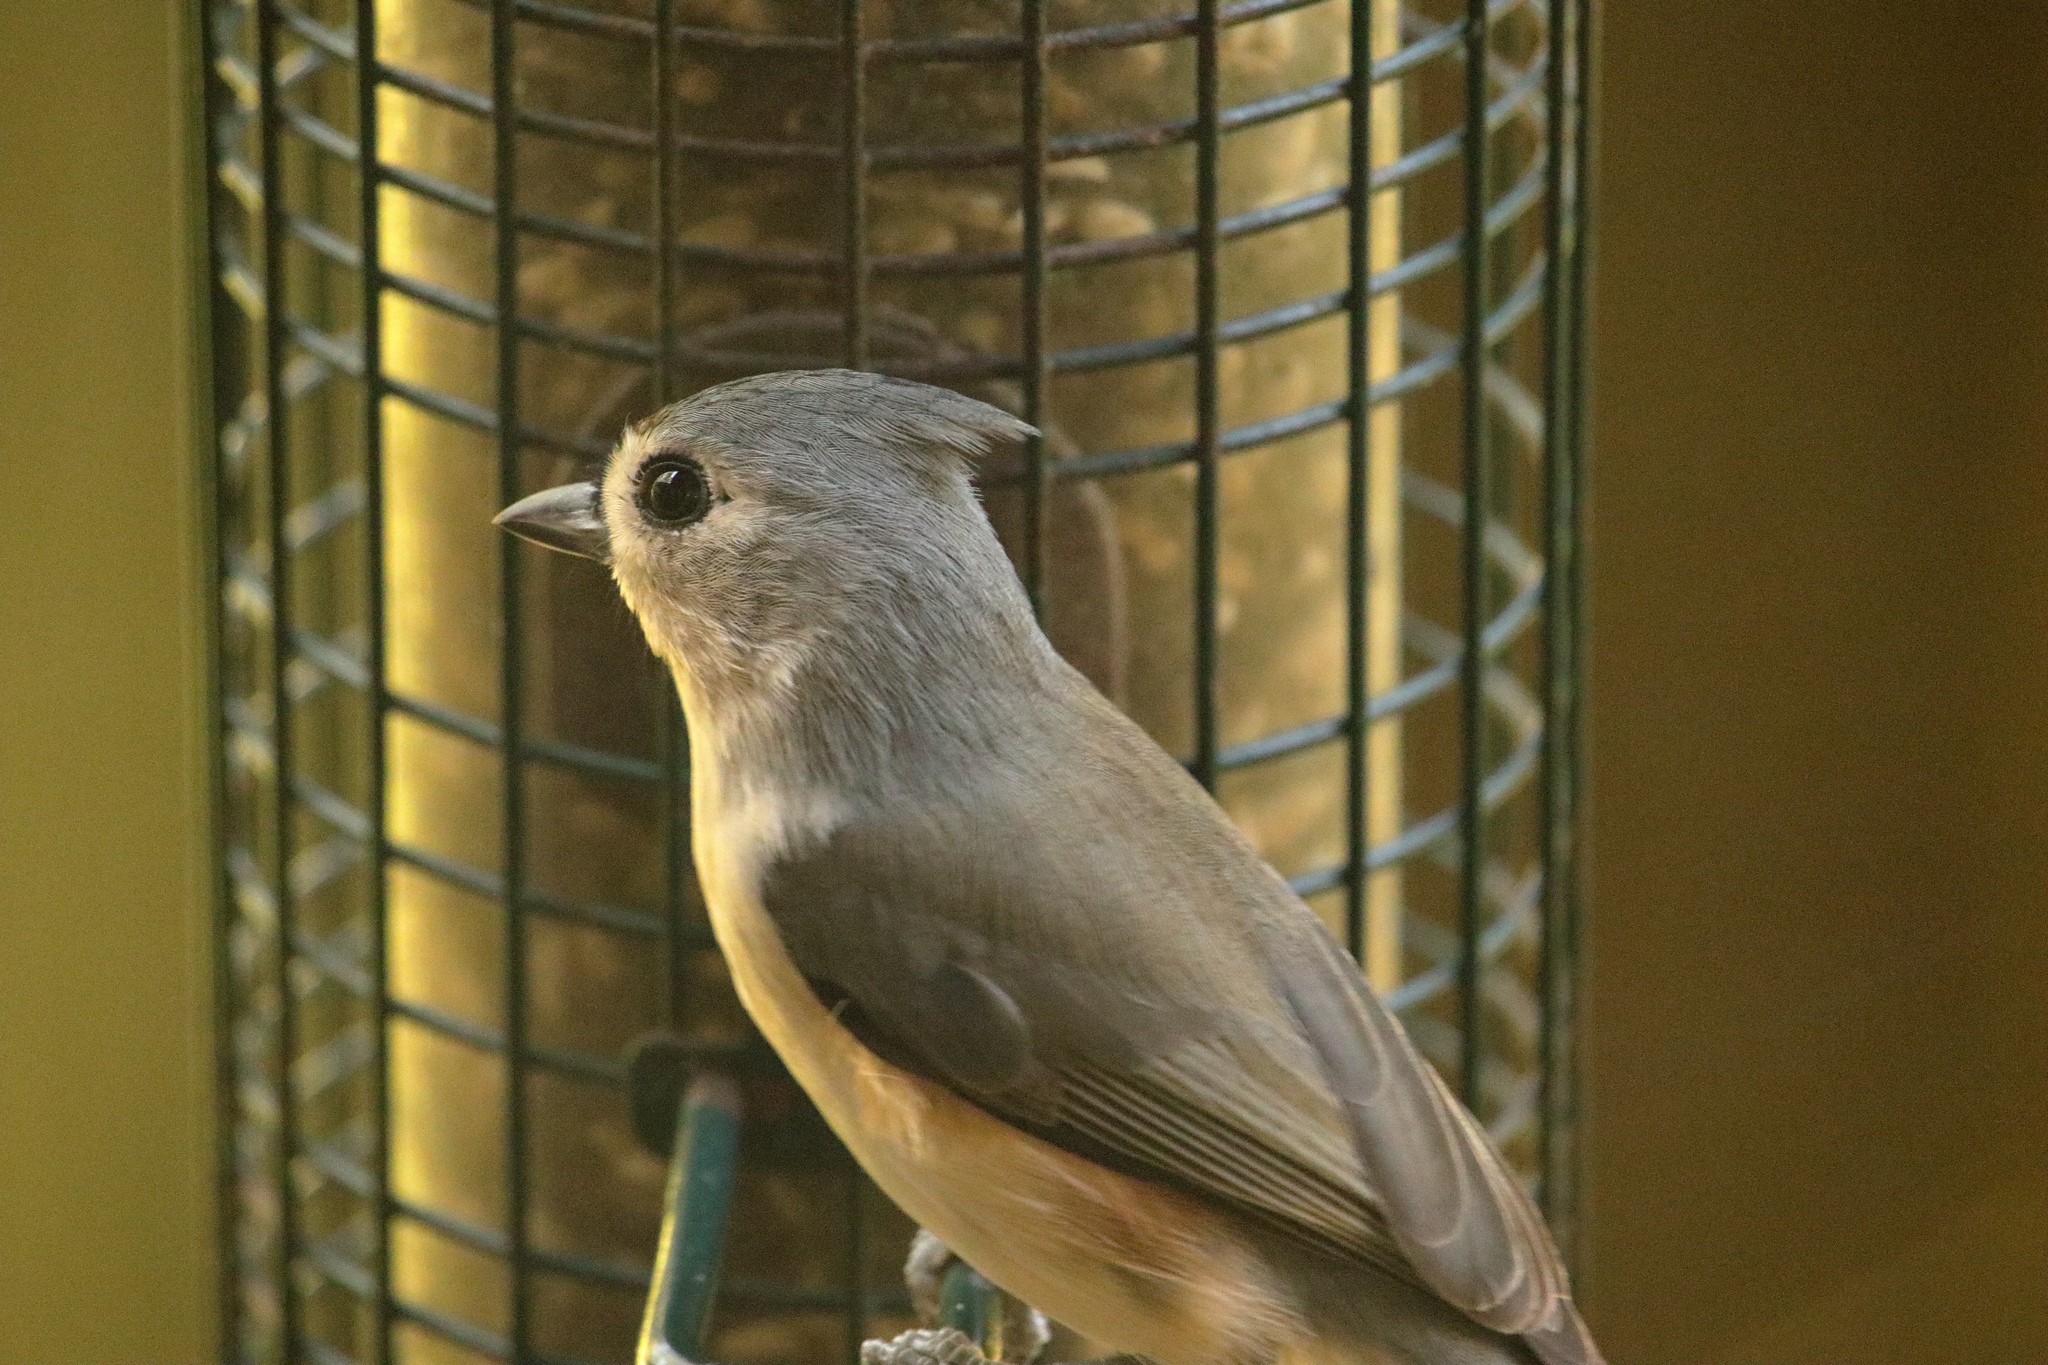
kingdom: Animalia
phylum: Chordata
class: Aves
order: Passeriformes
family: Paridae
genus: Baeolophus
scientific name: Baeolophus bicolor
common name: Tufted titmouse
